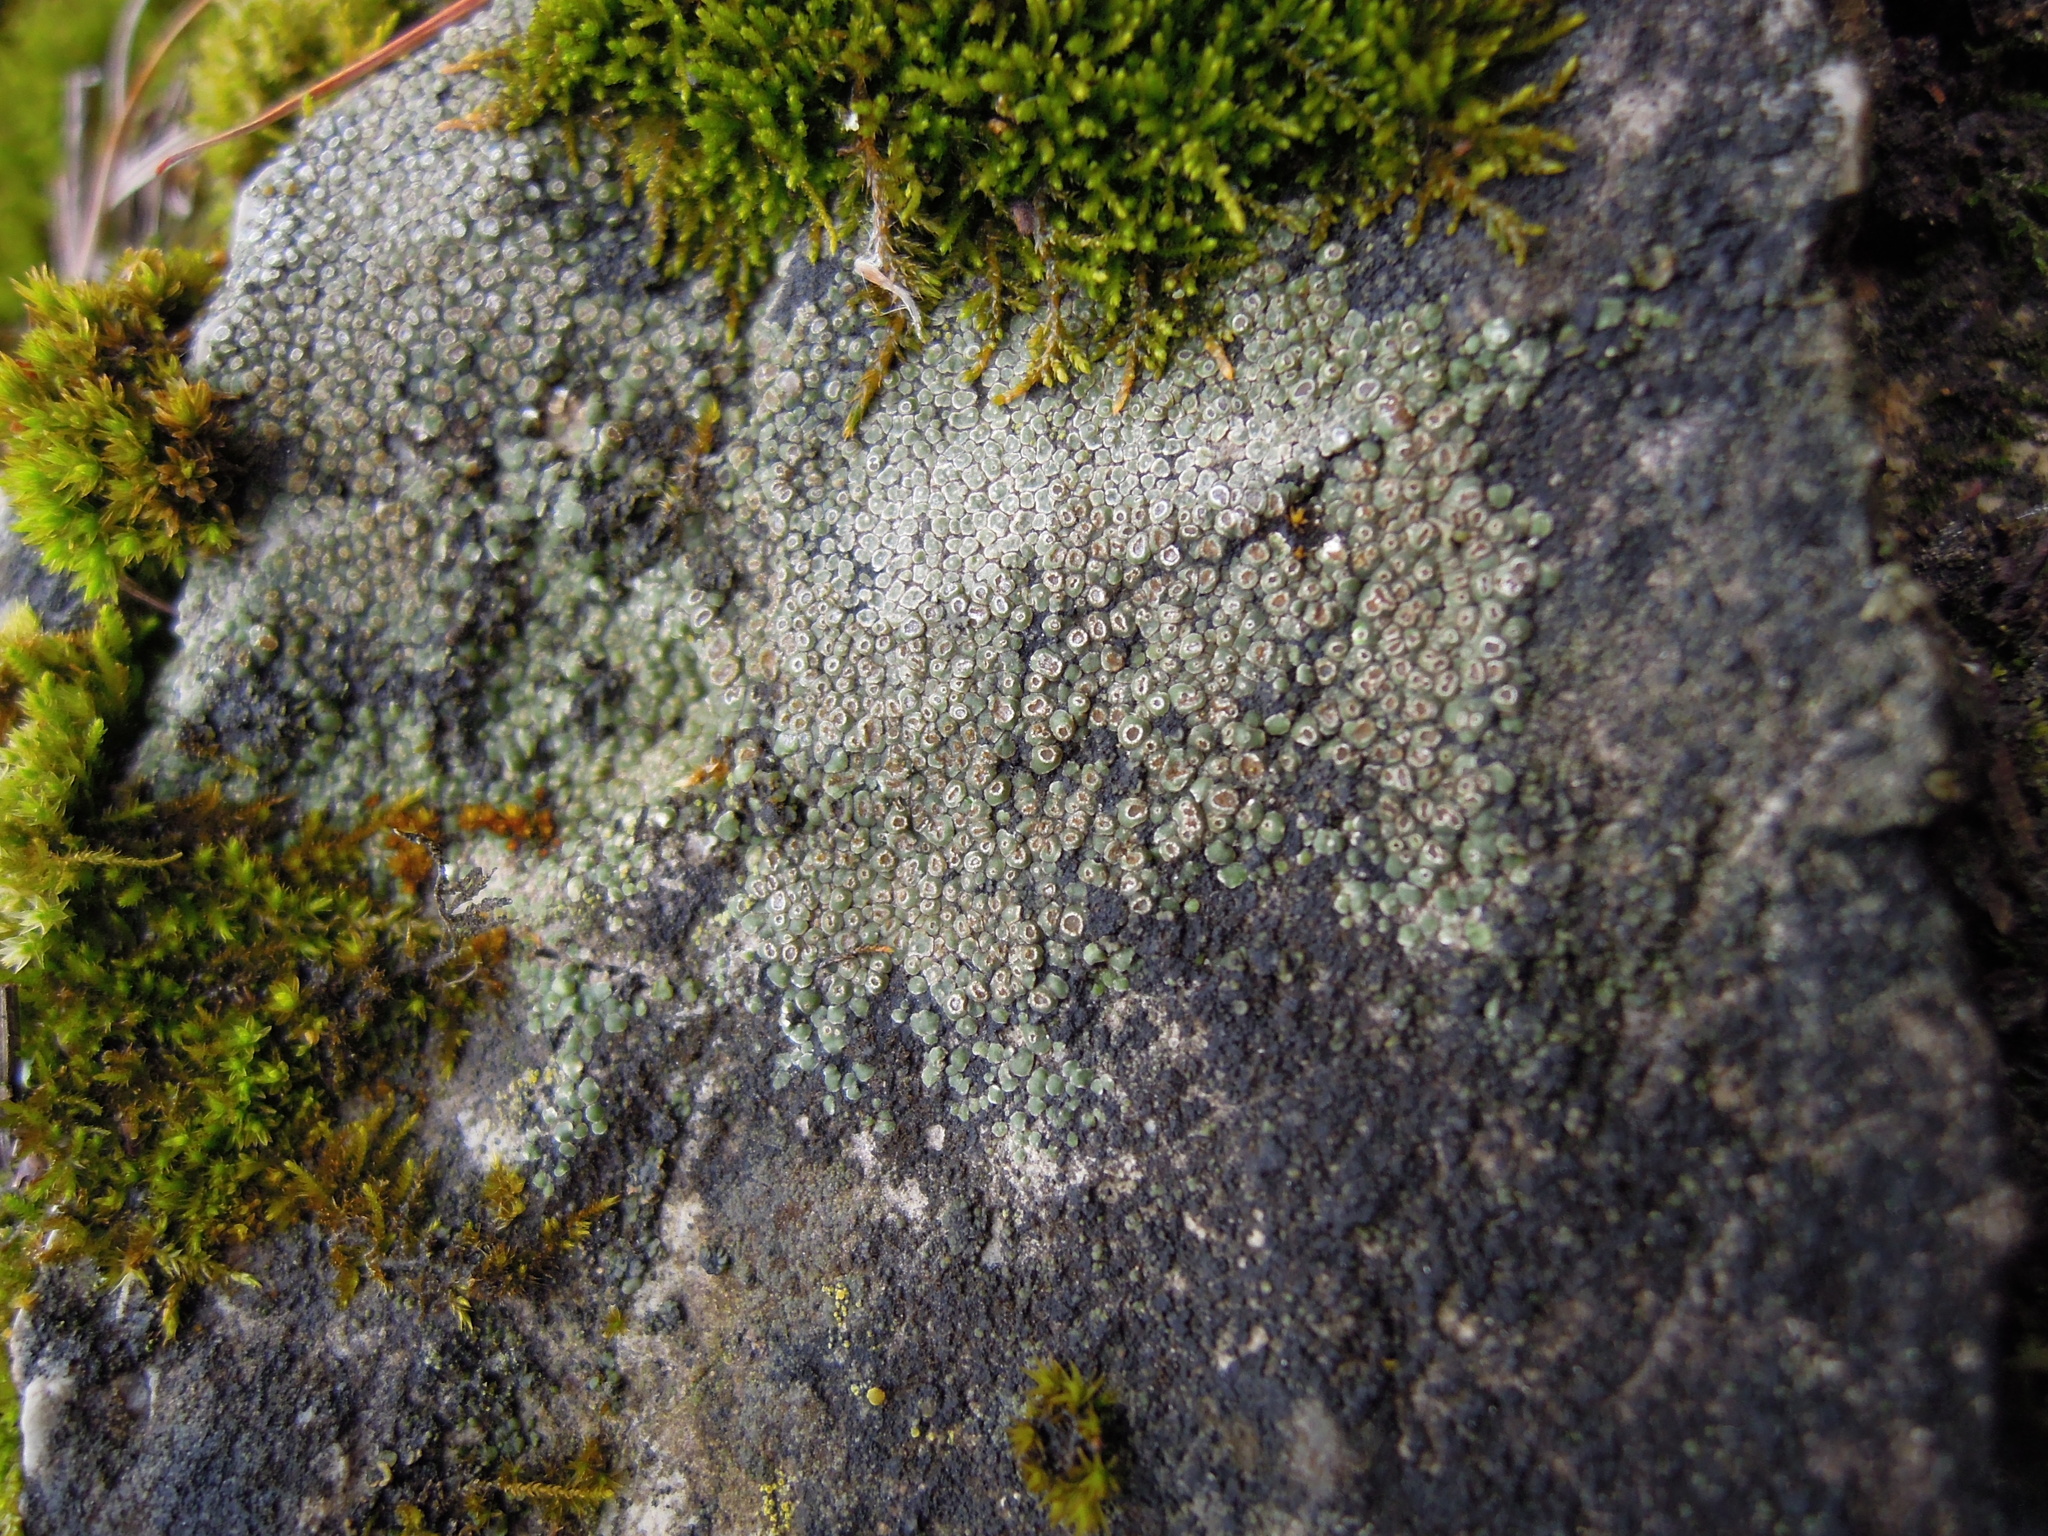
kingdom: Fungi
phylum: Ascomycota
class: Lecanoromycetes
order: Pertusariales
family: Megasporaceae
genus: Circinaria
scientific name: Circinaria contorta
